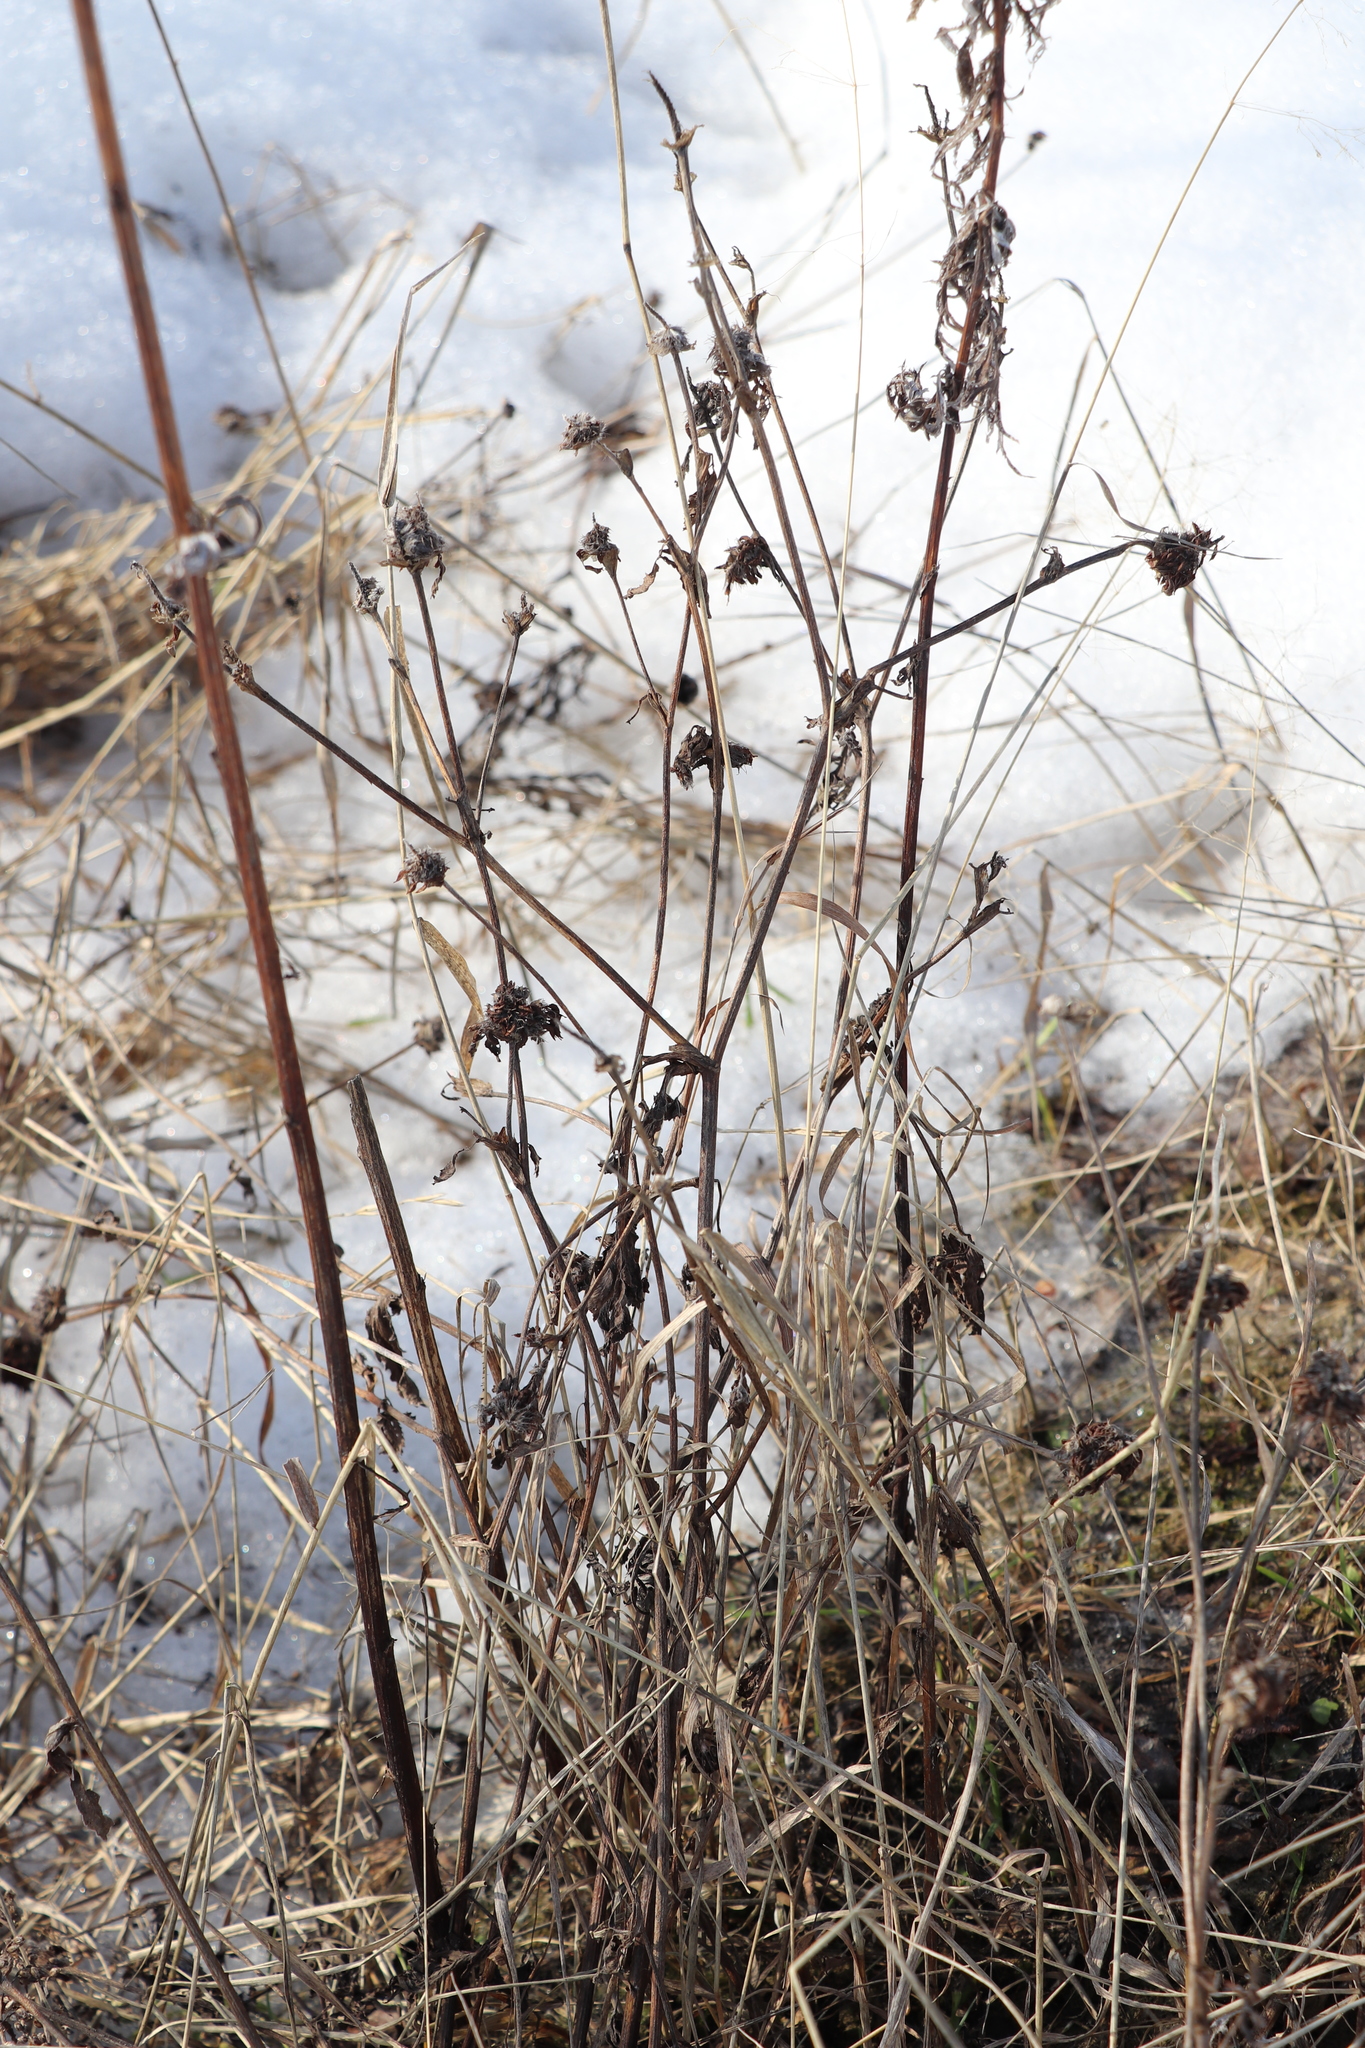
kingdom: Plantae
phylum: Tracheophyta
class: Magnoliopsida
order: Fabales
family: Fabaceae
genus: Trifolium
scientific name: Trifolium pratense
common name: Red clover
